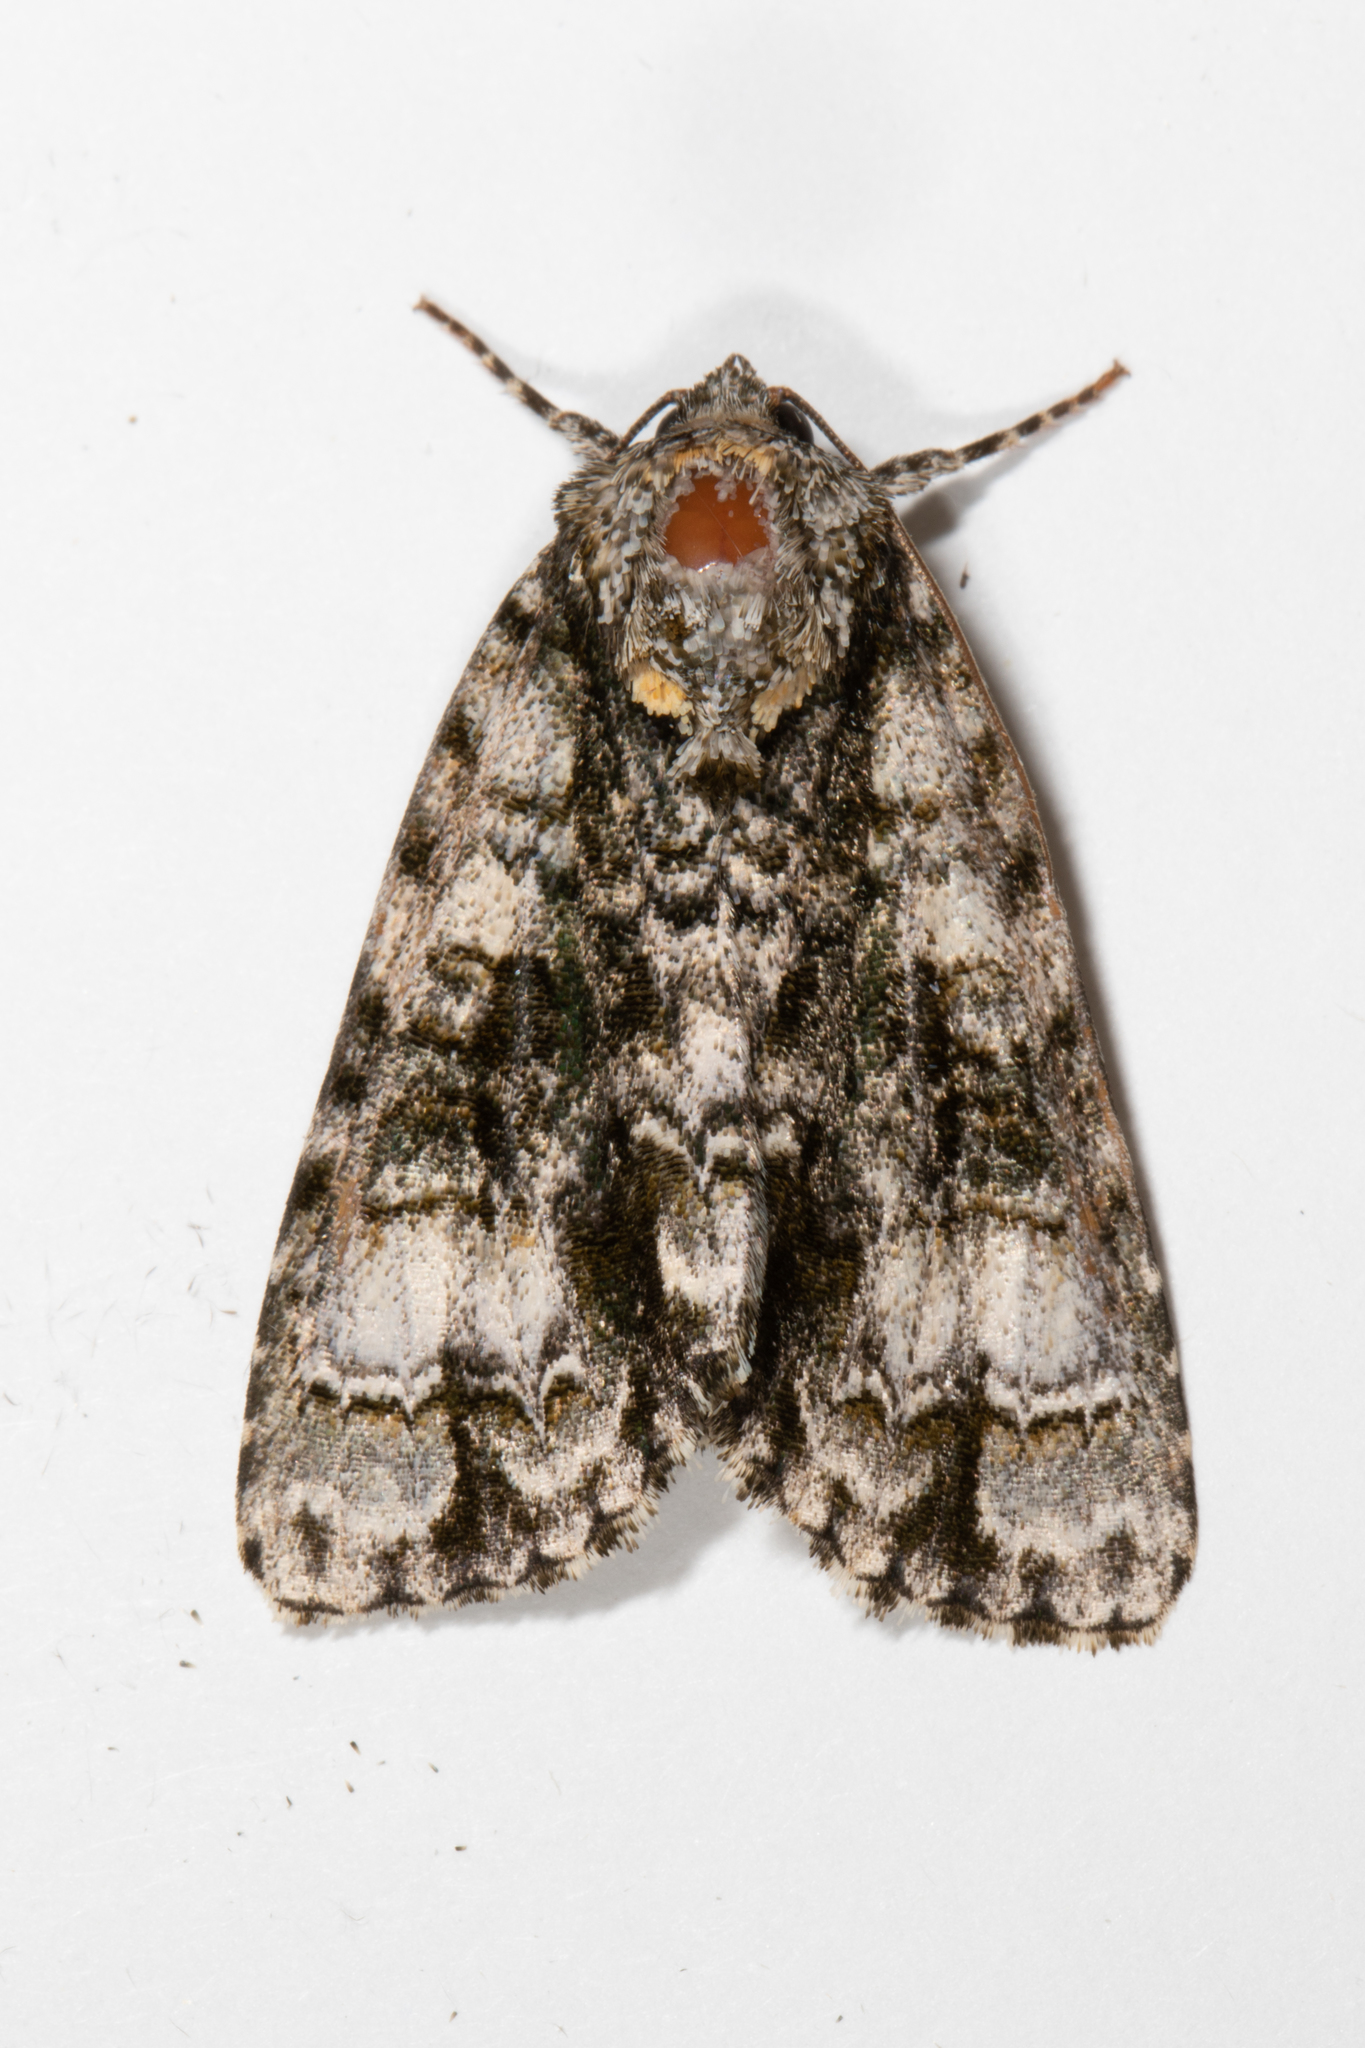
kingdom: Animalia
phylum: Arthropoda
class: Insecta
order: Lepidoptera
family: Noctuidae
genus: Acronicta
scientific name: Acronicta superans
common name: Splendid dagger
